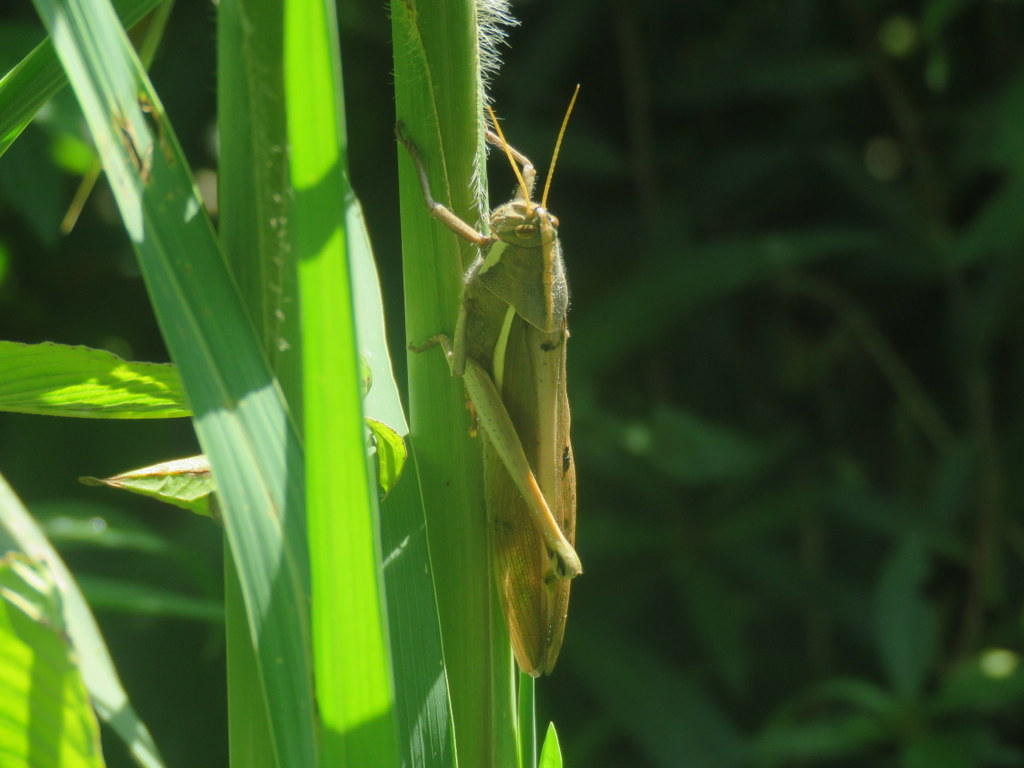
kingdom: Animalia
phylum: Arthropoda
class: Insecta
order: Orthoptera
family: Acrididae
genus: Schistocerca
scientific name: Schistocerca flavofasciata
